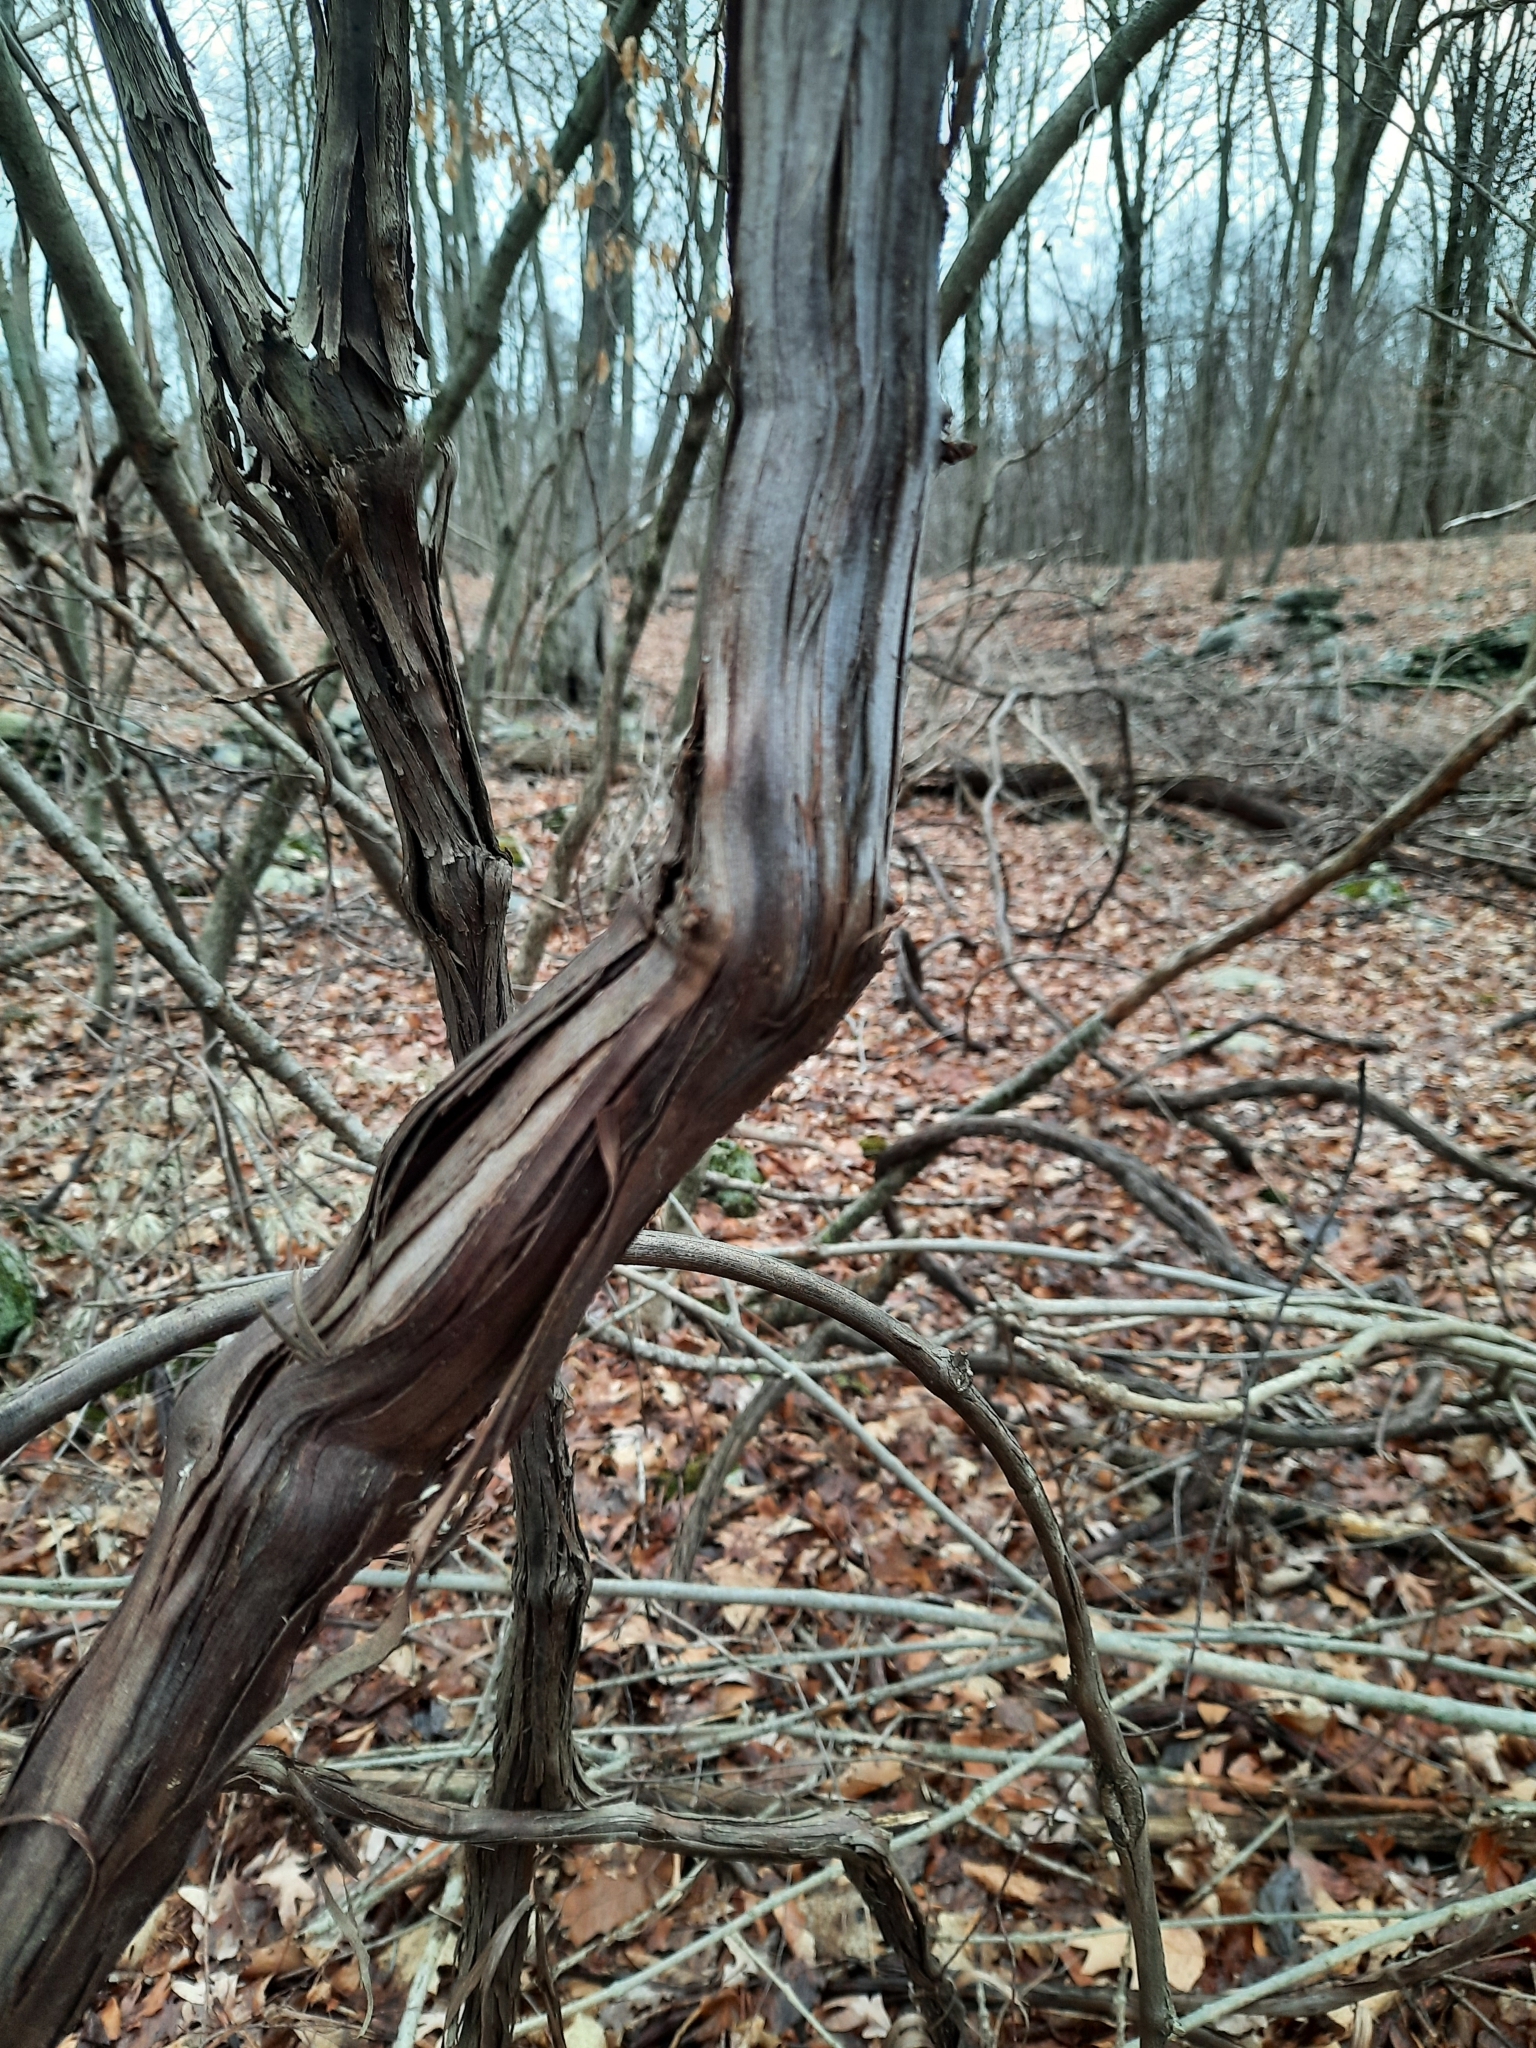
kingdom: Plantae
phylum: Tracheophyta
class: Magnoliopsida
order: Vitales
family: Vitaceae
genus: Vitis
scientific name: Vitis
